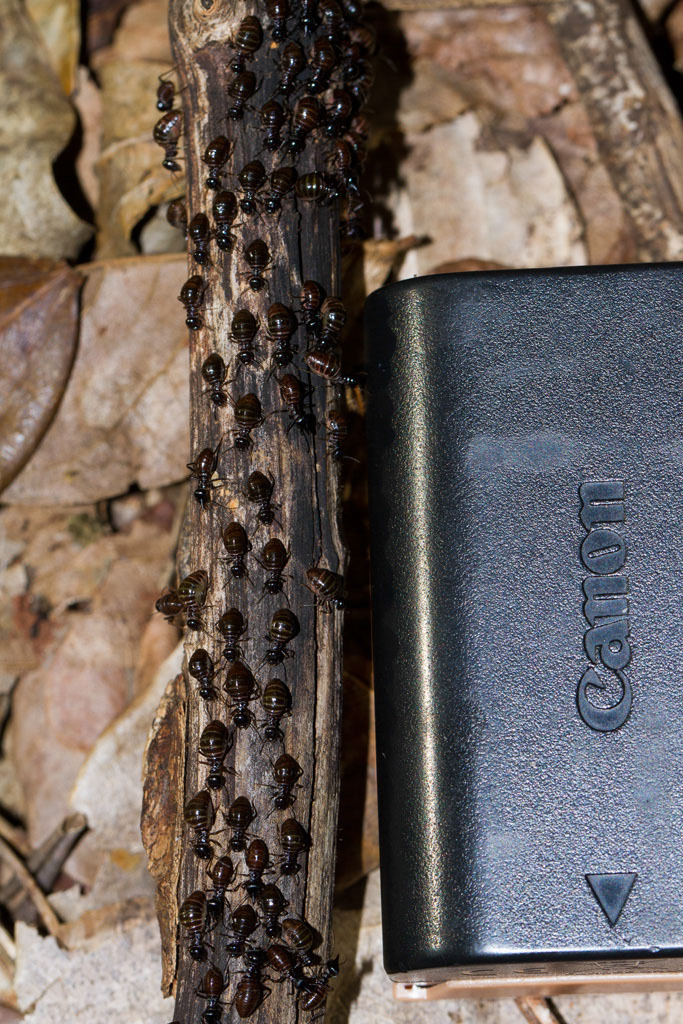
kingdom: Animalia
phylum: Arthropoda
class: Insecta
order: Blattodea
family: Termitidae
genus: Grallatotermes
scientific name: Grallatotermes africanus
